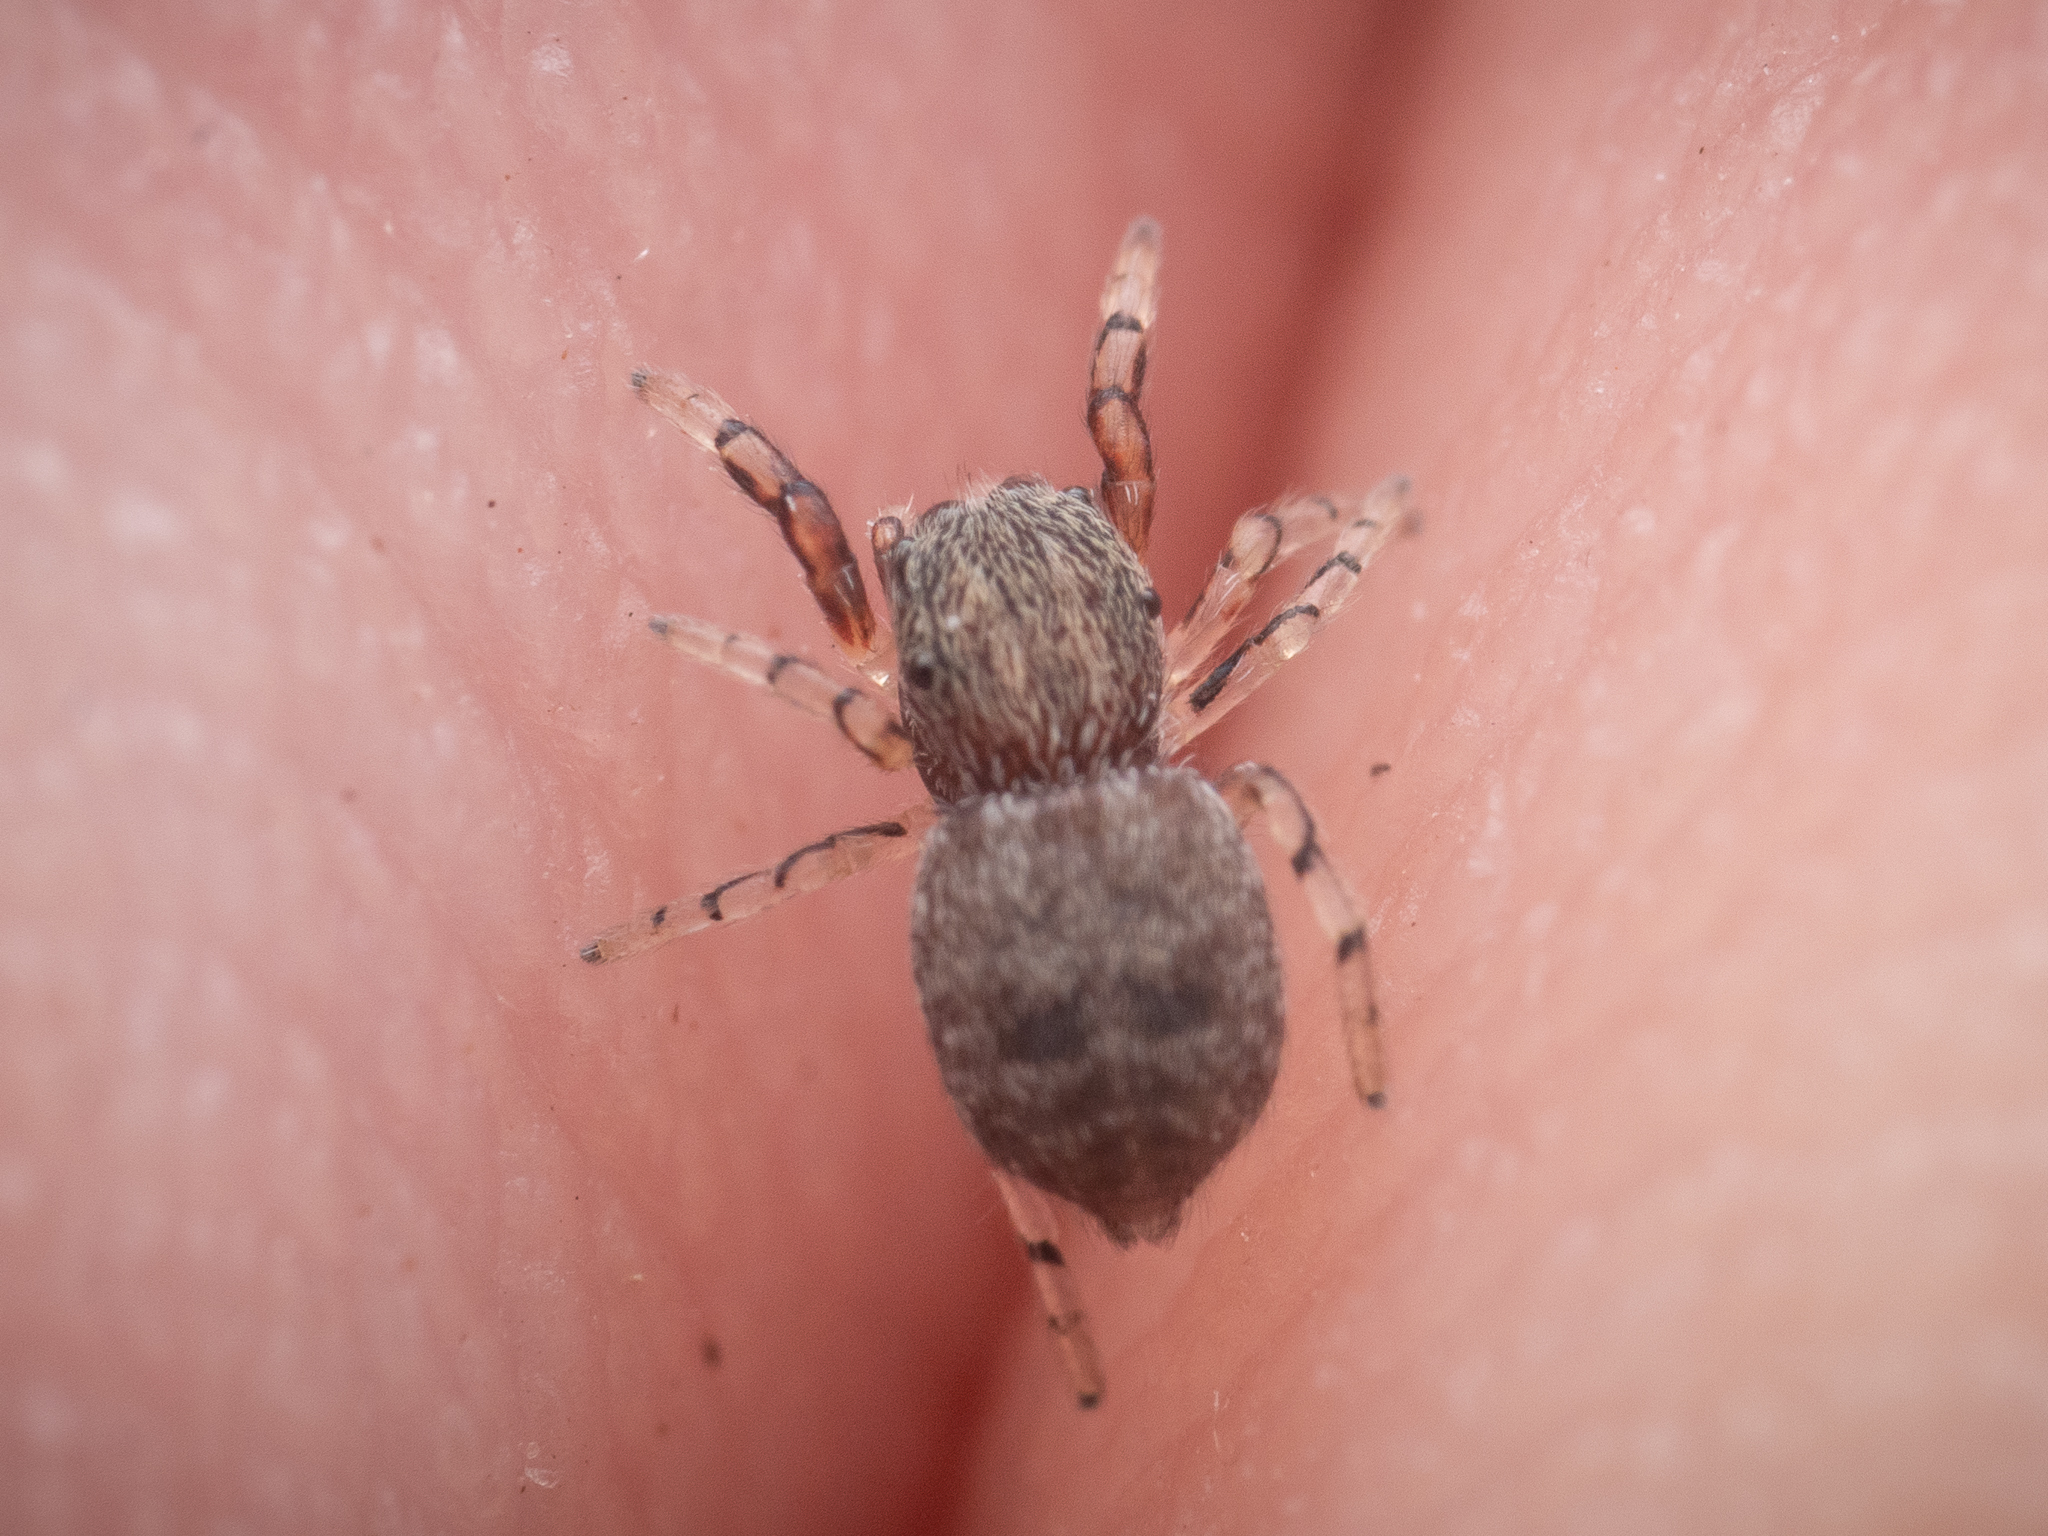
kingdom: Animalia
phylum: Arthropoda
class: Arachnida
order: Araneae
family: Salticidae
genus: Ballus
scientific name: Ballus chalybeius
